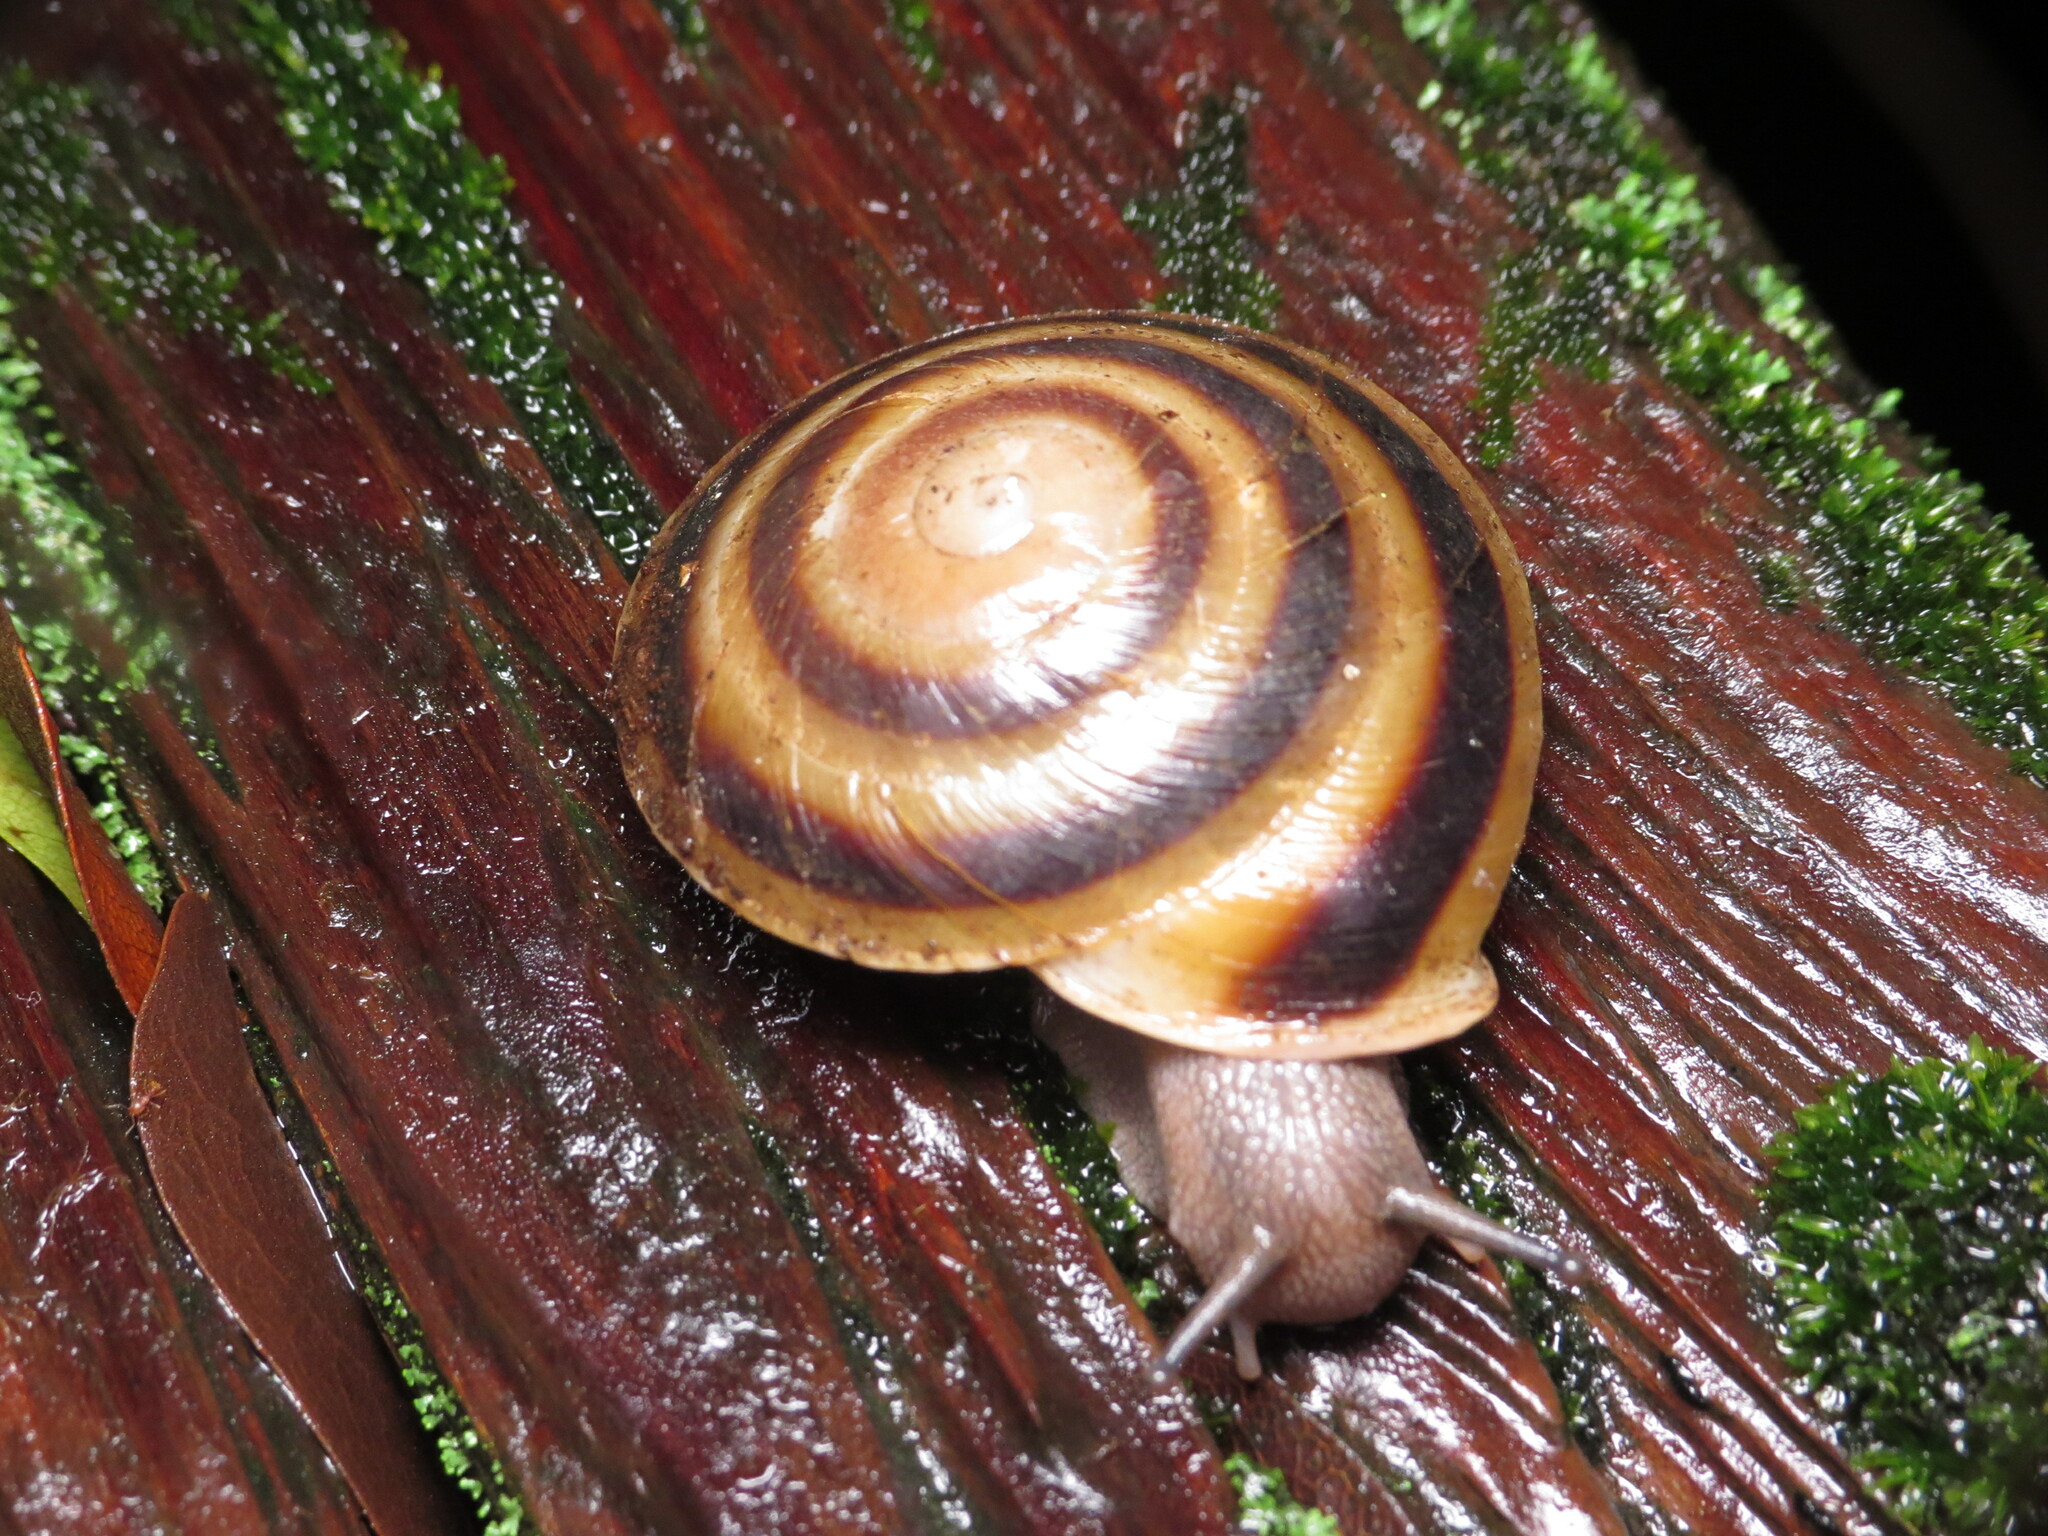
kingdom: Animalia
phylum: Mollusca
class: Gastropoda
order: Stylommatophora
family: Solaropsidae
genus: Caracolus
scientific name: Caracolus marginella
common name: Banded caracol
